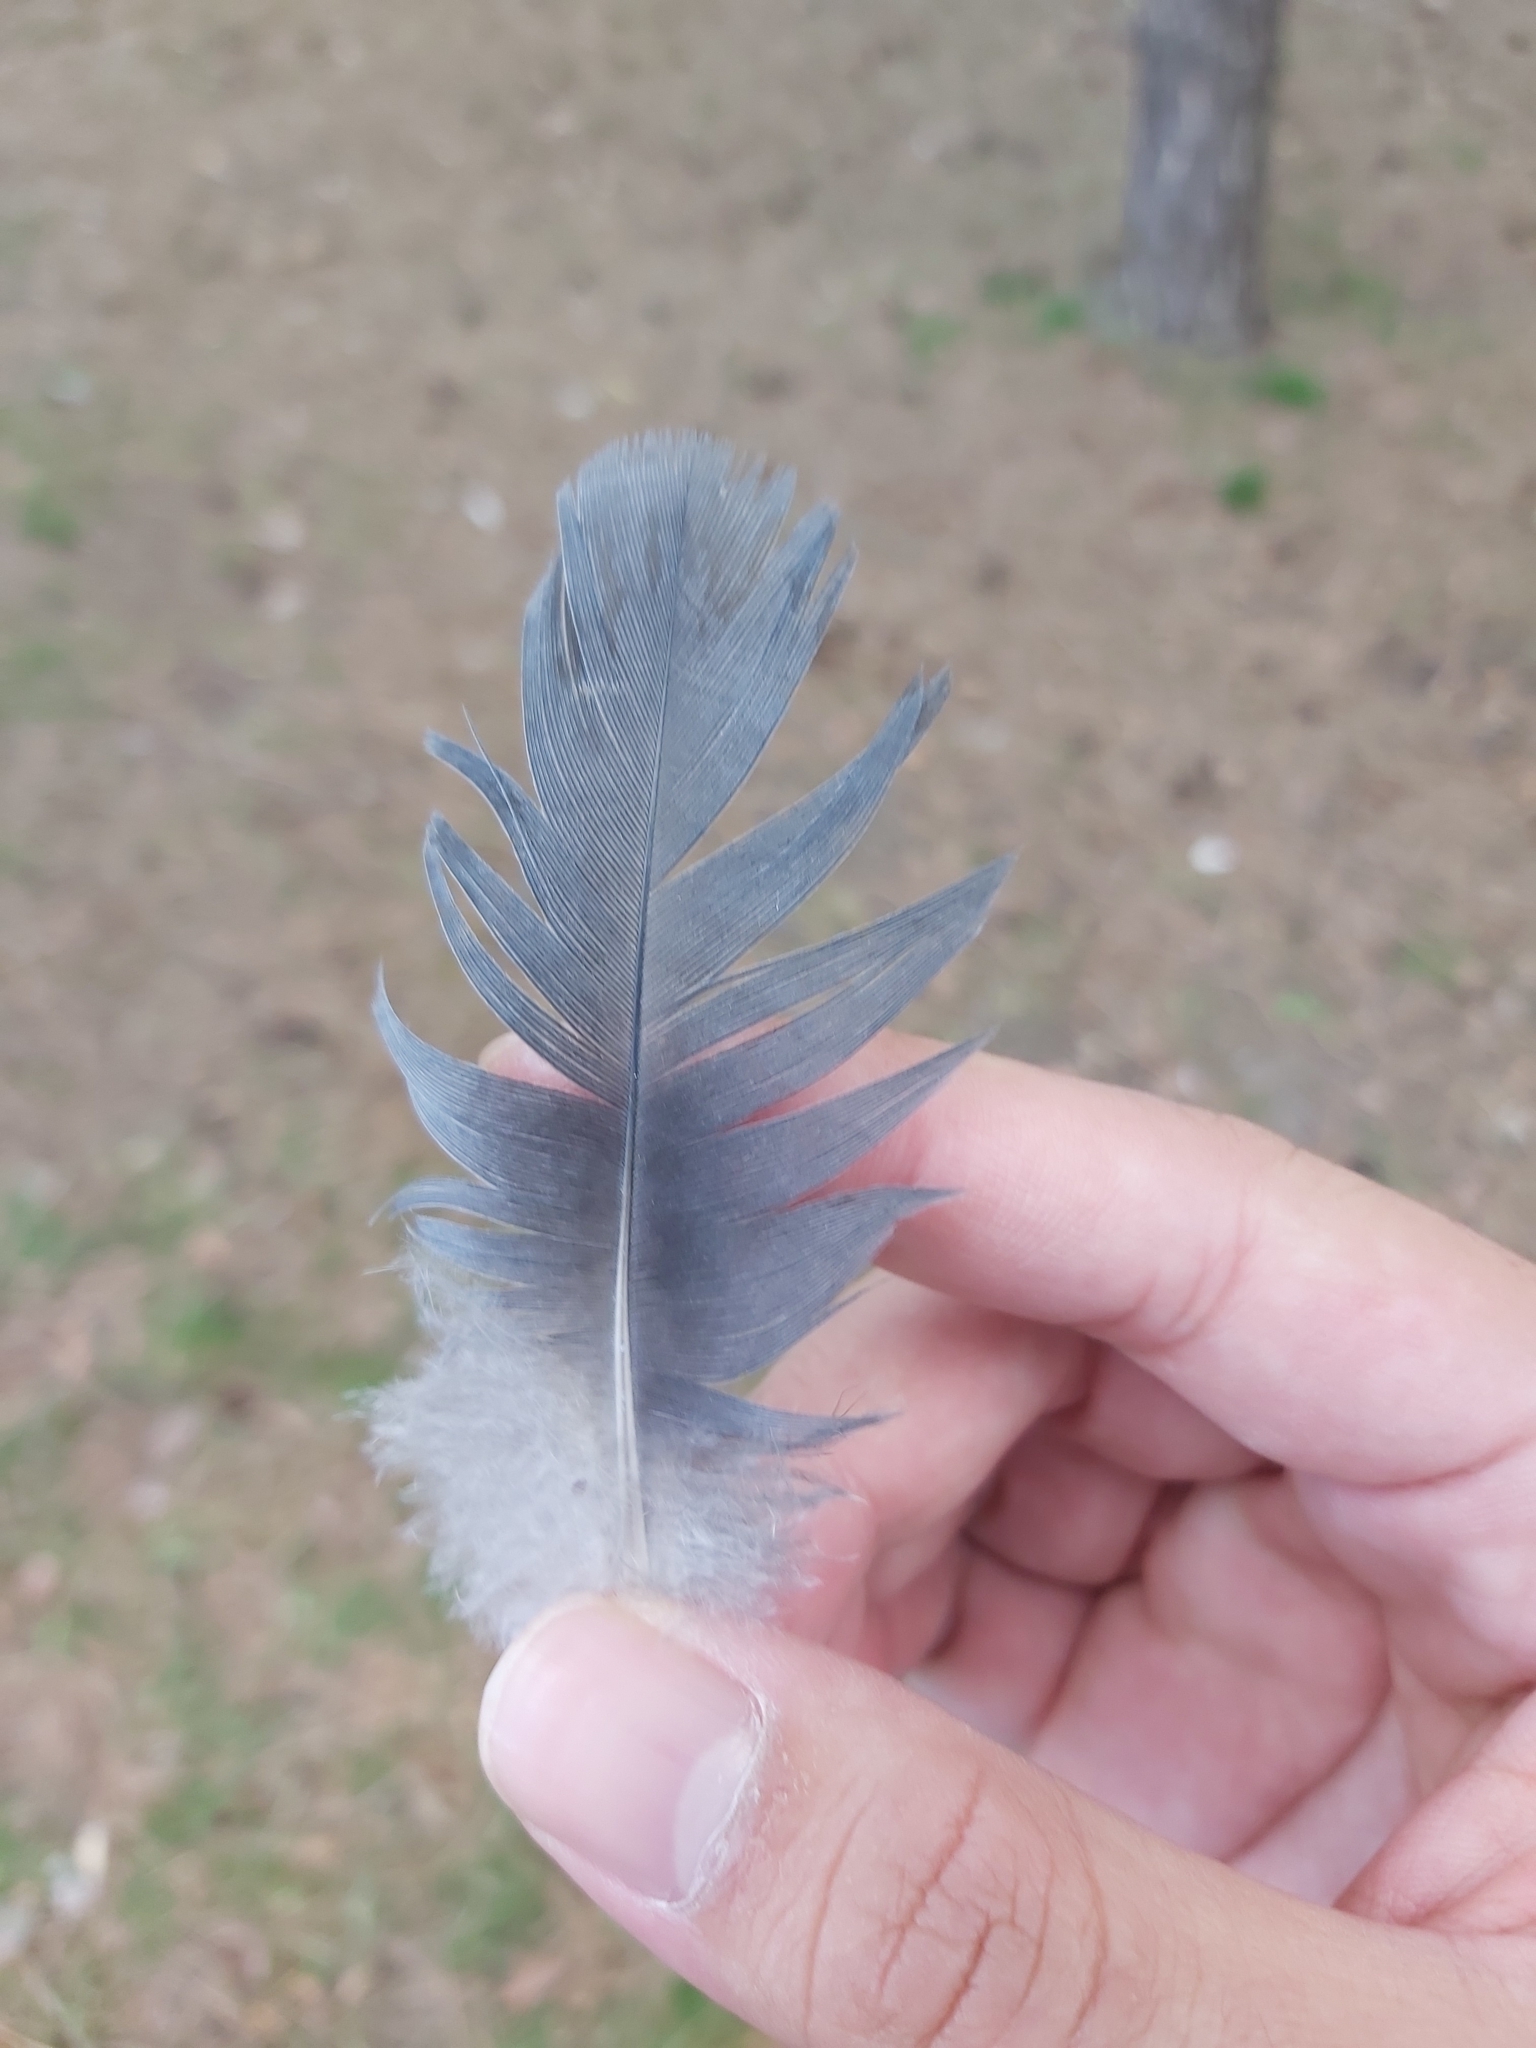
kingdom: Animalia
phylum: Chordata
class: Aves
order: Columbiformes
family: Columbidae
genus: Columba
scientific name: Columba livia
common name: Rock pigeon
